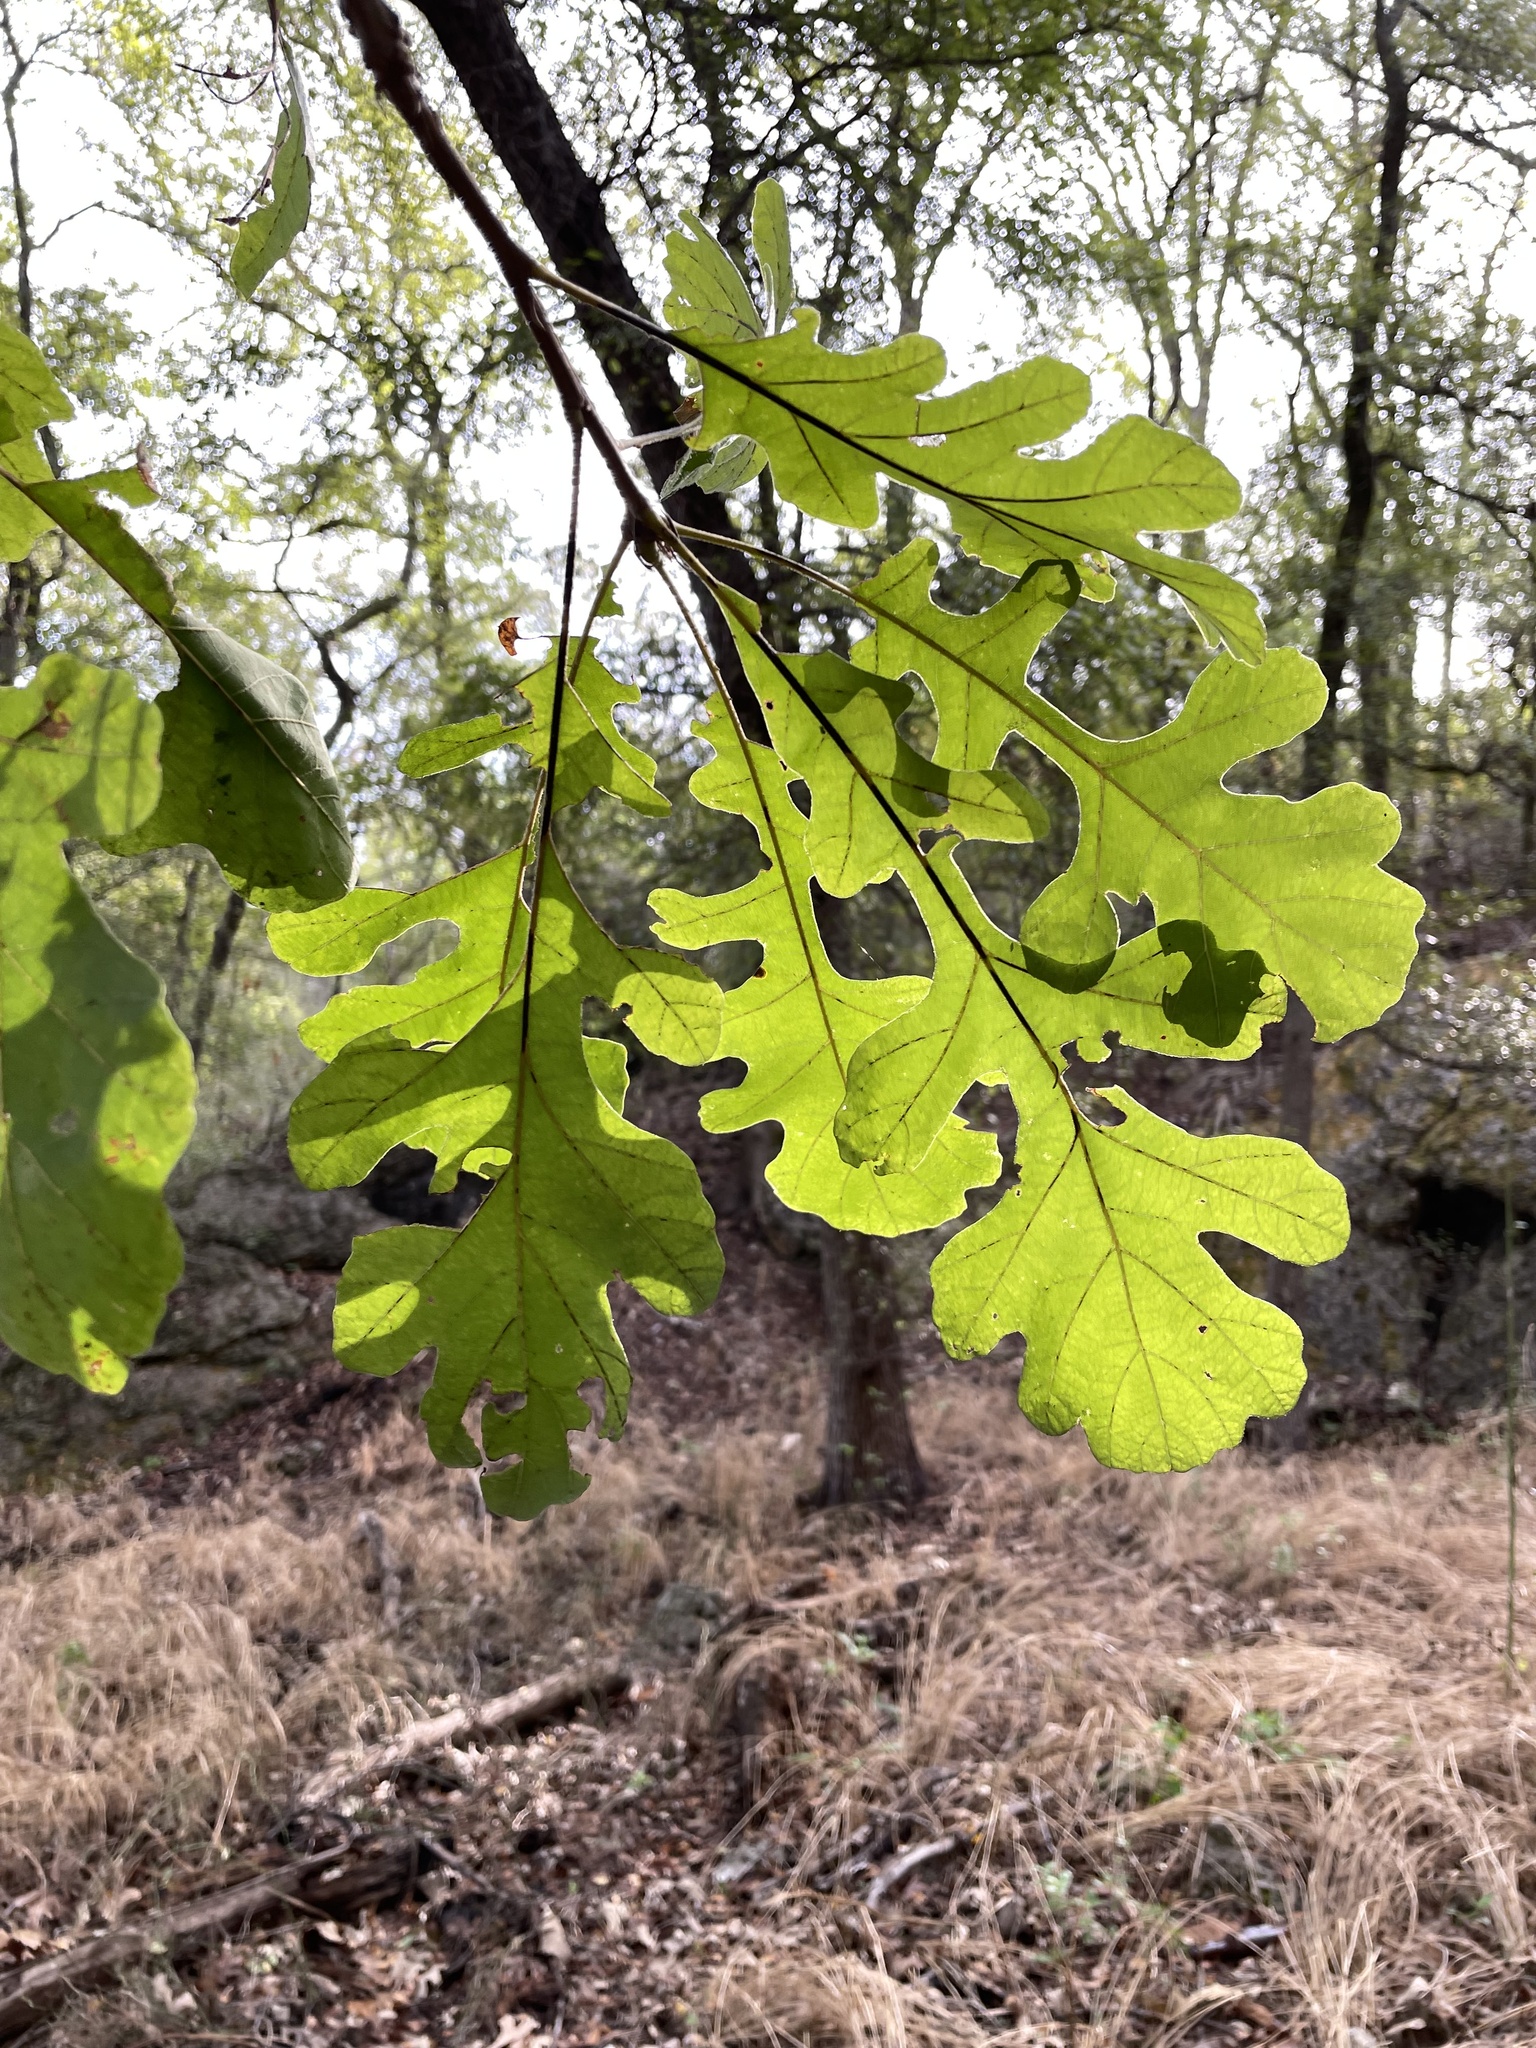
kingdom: Plantae
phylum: Tracheophyta
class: Magnoliopsida
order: Fagales
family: Fagaceae
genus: Quercus
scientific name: Quercus macrocarpa
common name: Bur oak
